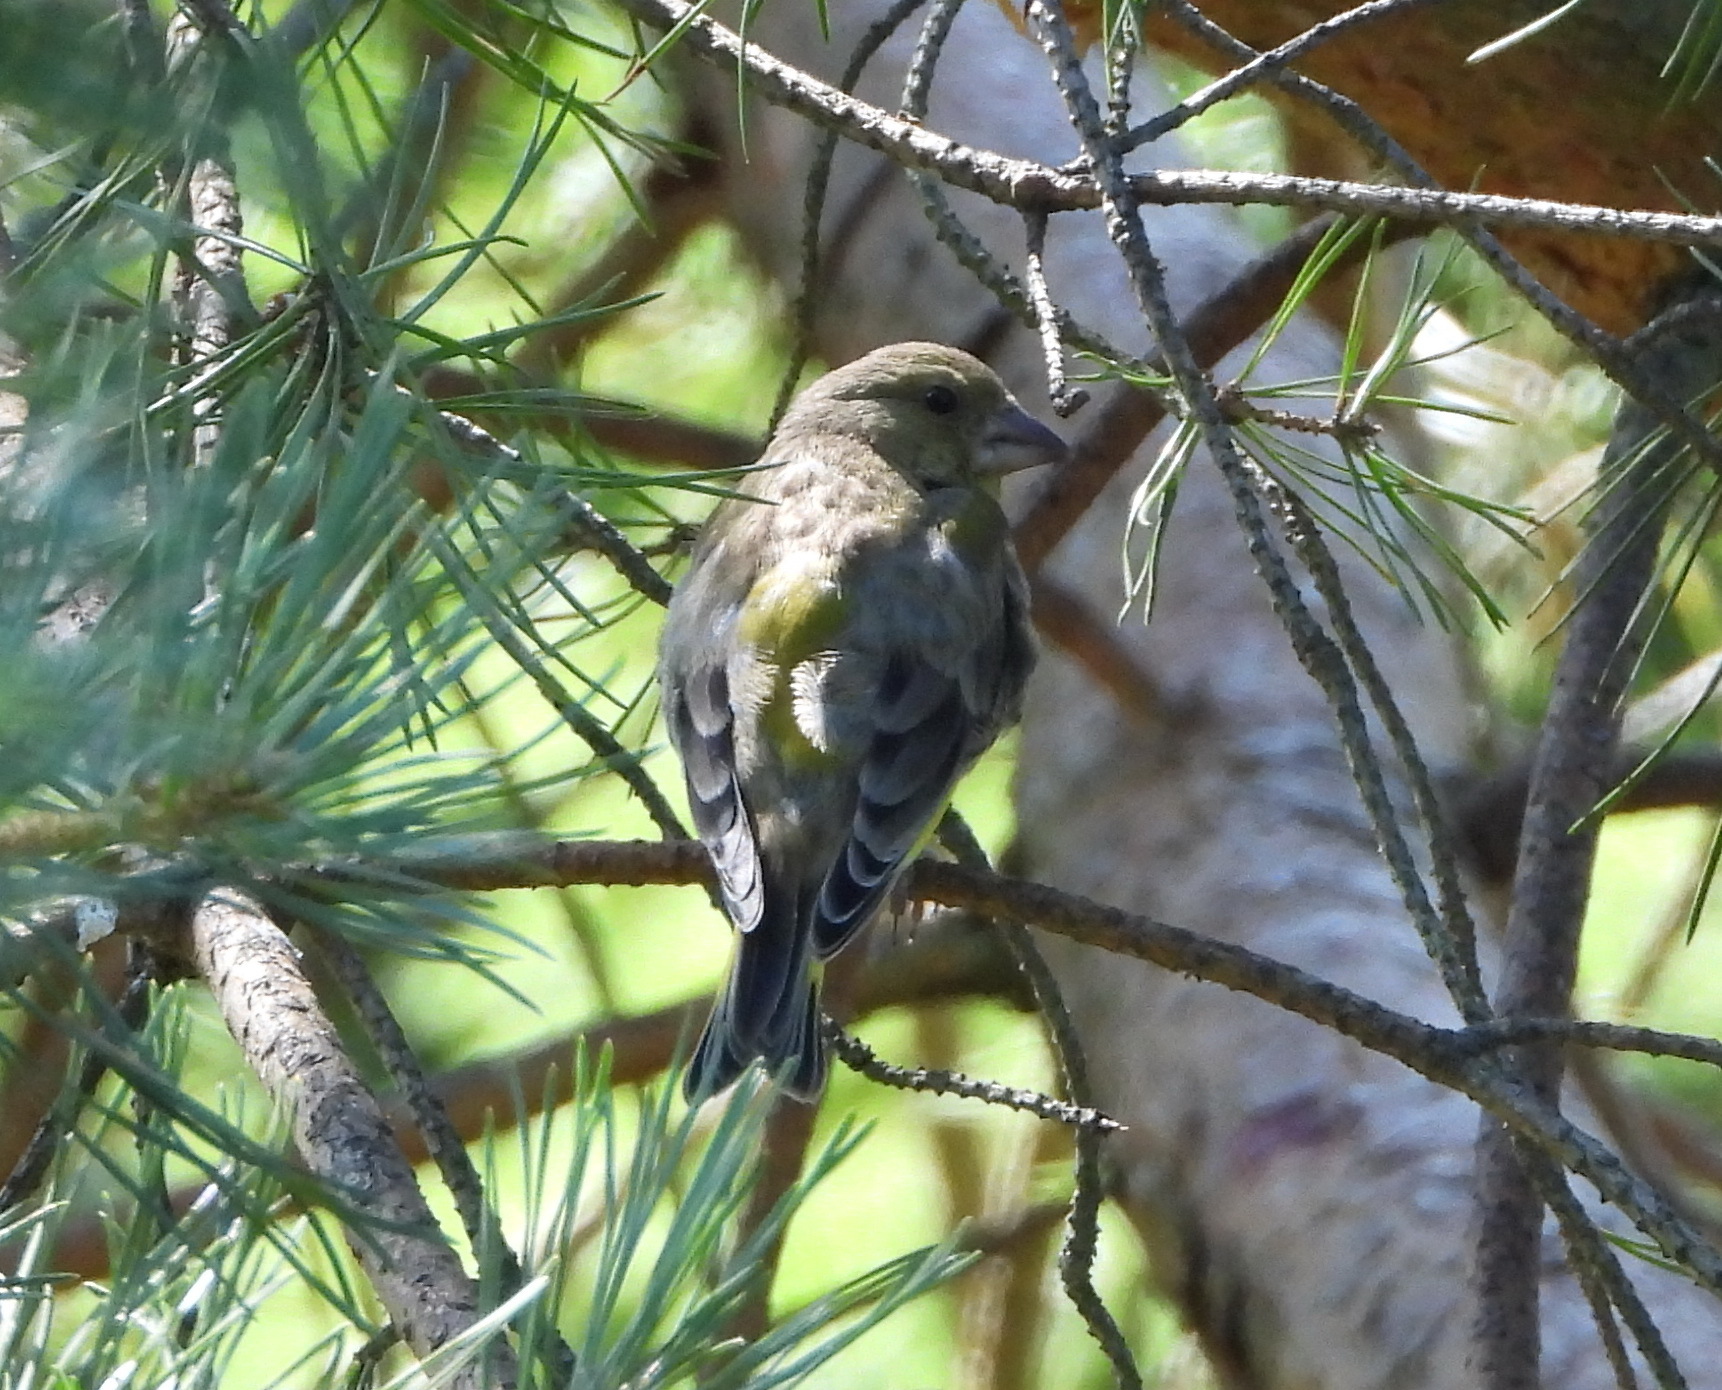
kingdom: Plantae
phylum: Tracheophyta
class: Liliopsida
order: Poales
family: Poaceae
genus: Chloris
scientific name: Chloris chloris
